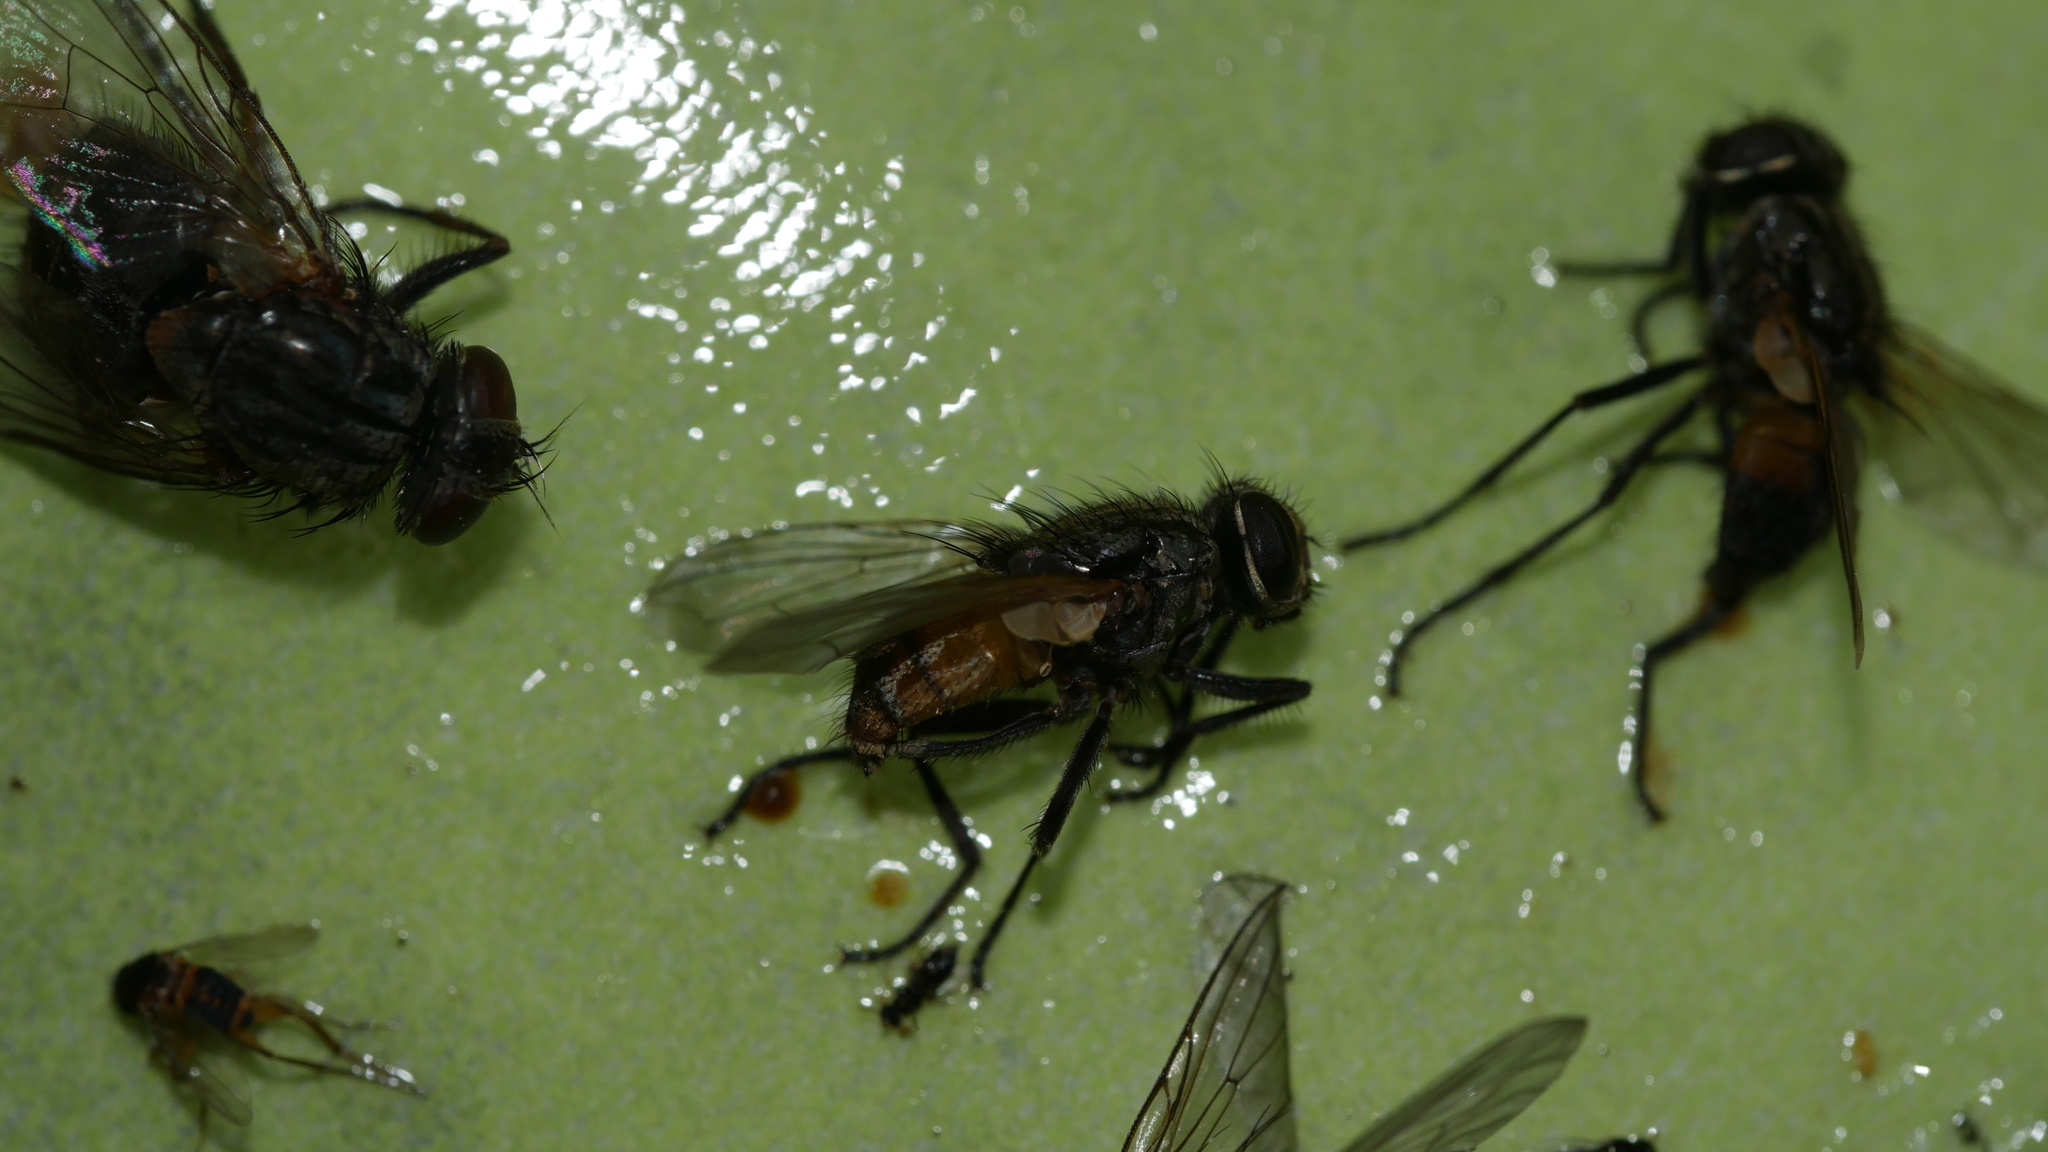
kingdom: Animalia
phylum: Arthropoda
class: Insecta
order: Diptera
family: Muscidae
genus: Musca
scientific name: Musca domestica
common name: House fly
